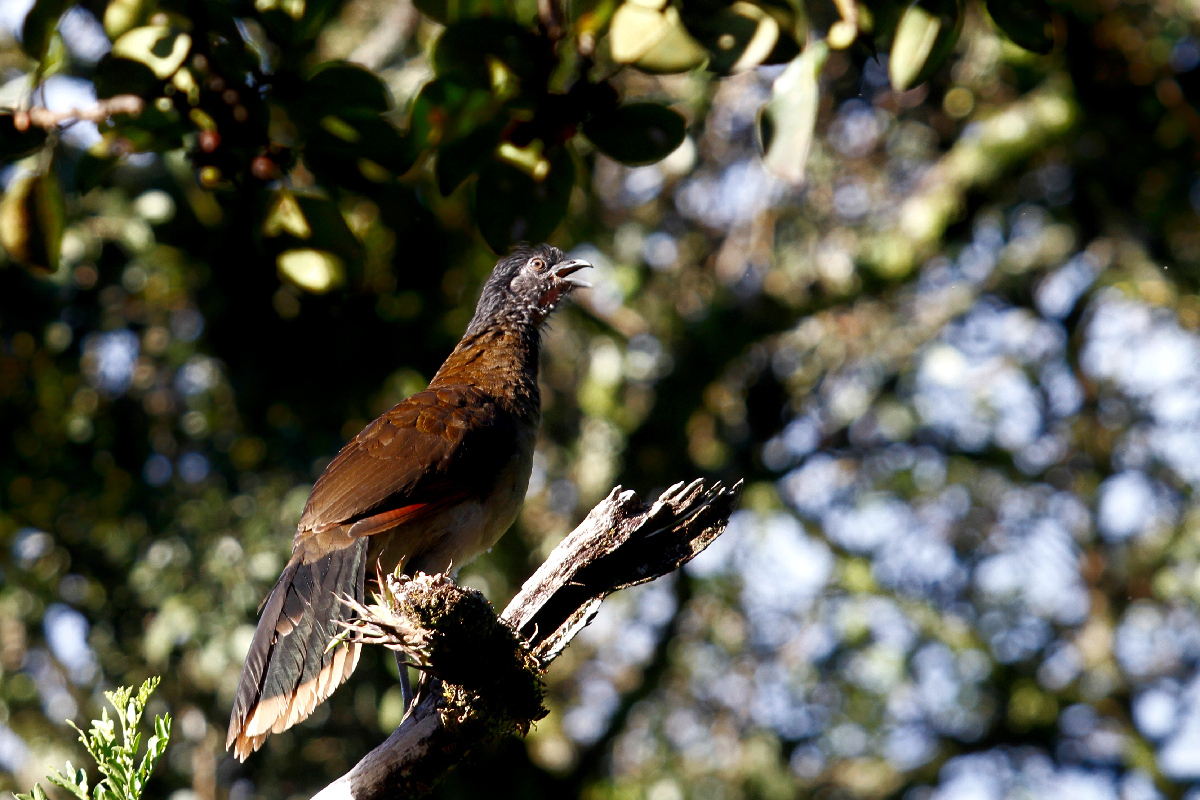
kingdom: Animalia
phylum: Chordata
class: Aves
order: Galliformes
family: Cracidae
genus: Ortalis
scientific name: Ortalis cinereiceps
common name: Grey-headed chachalaca
